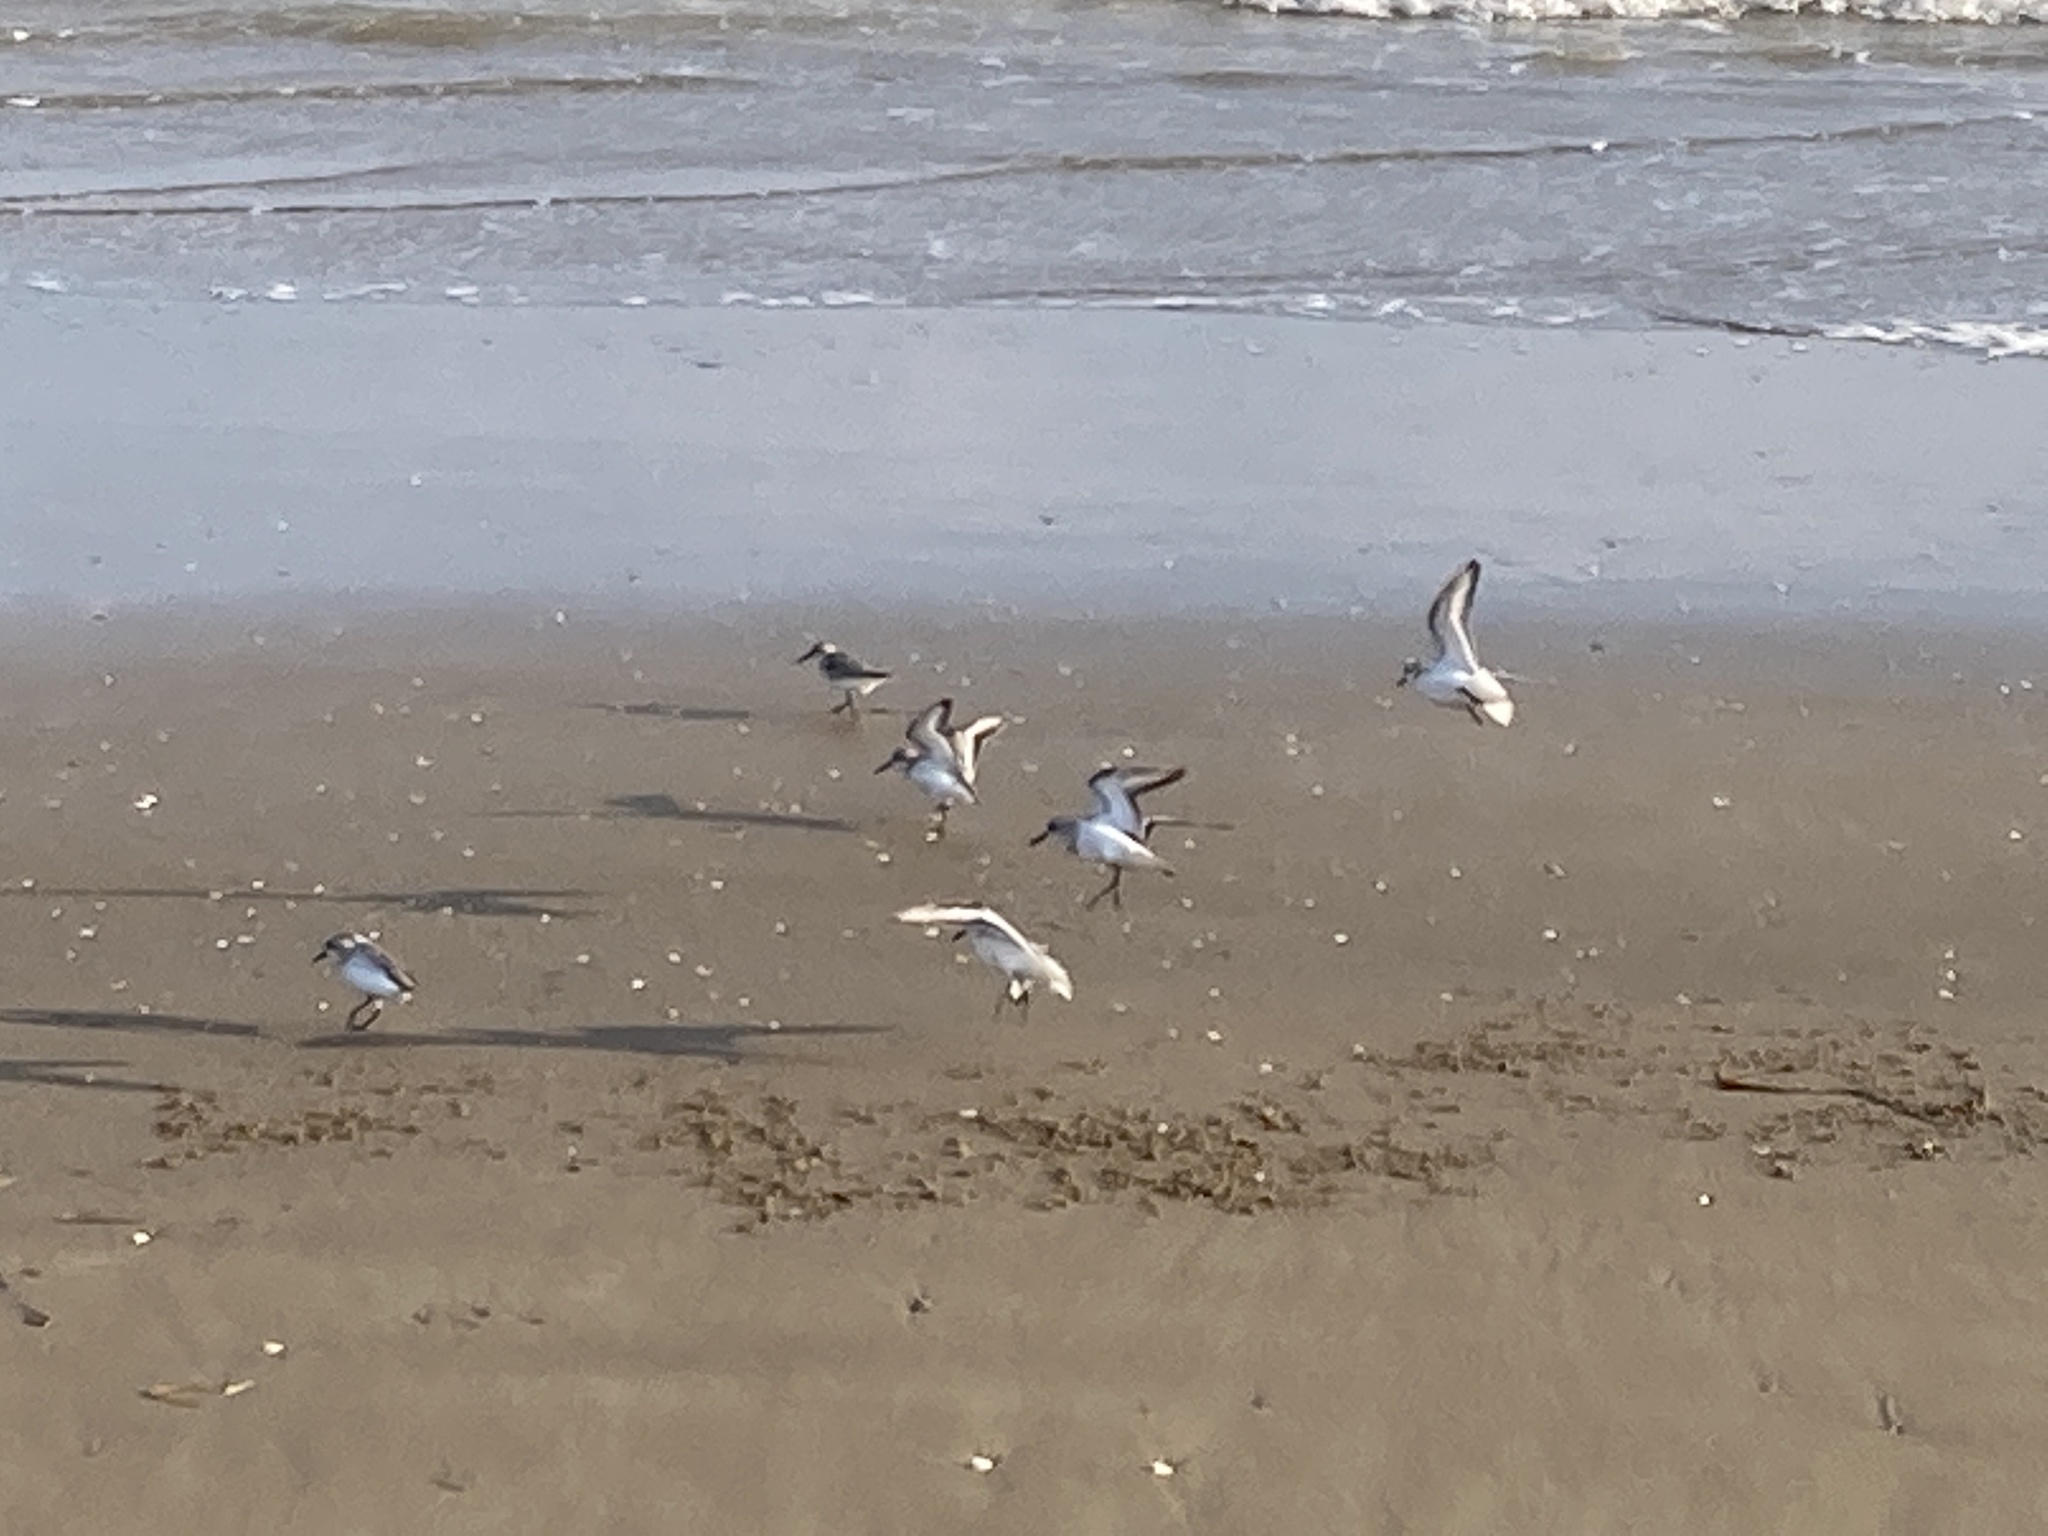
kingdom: Animalia
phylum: Chordata
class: Aves
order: Charadriiformes
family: Scolopacidae
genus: Calidris
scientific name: Calidris alba
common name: Sanderling
